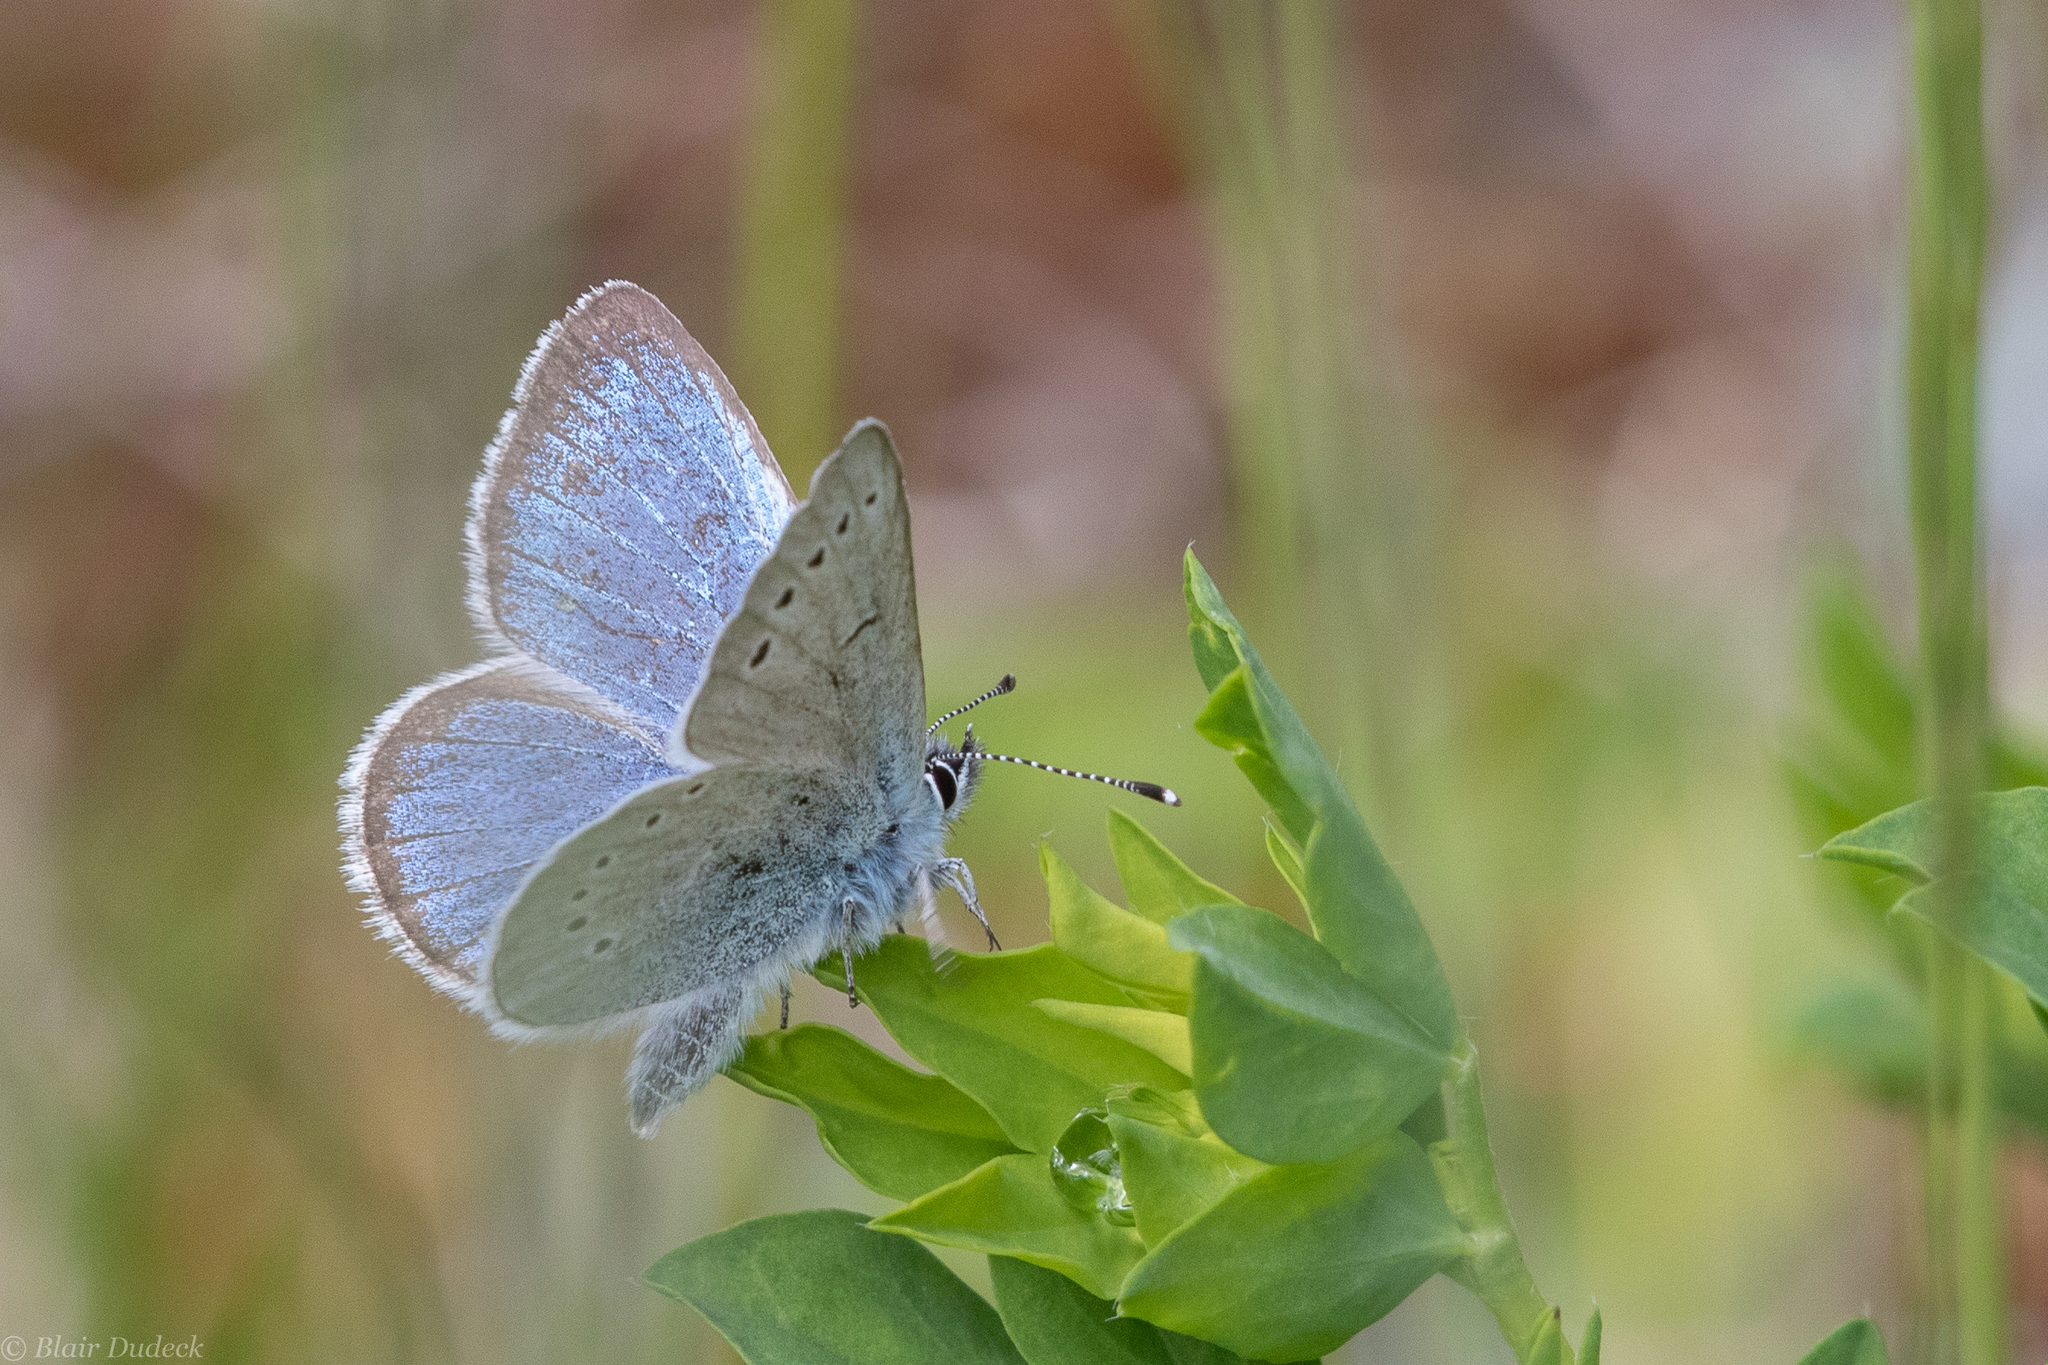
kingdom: Animalia
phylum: Arthropoda
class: Insecta
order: Lepidoptera
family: Lycaenidae
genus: Glaucopsyche
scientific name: Glaucopsyche lygdamus
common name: Silvery blue
